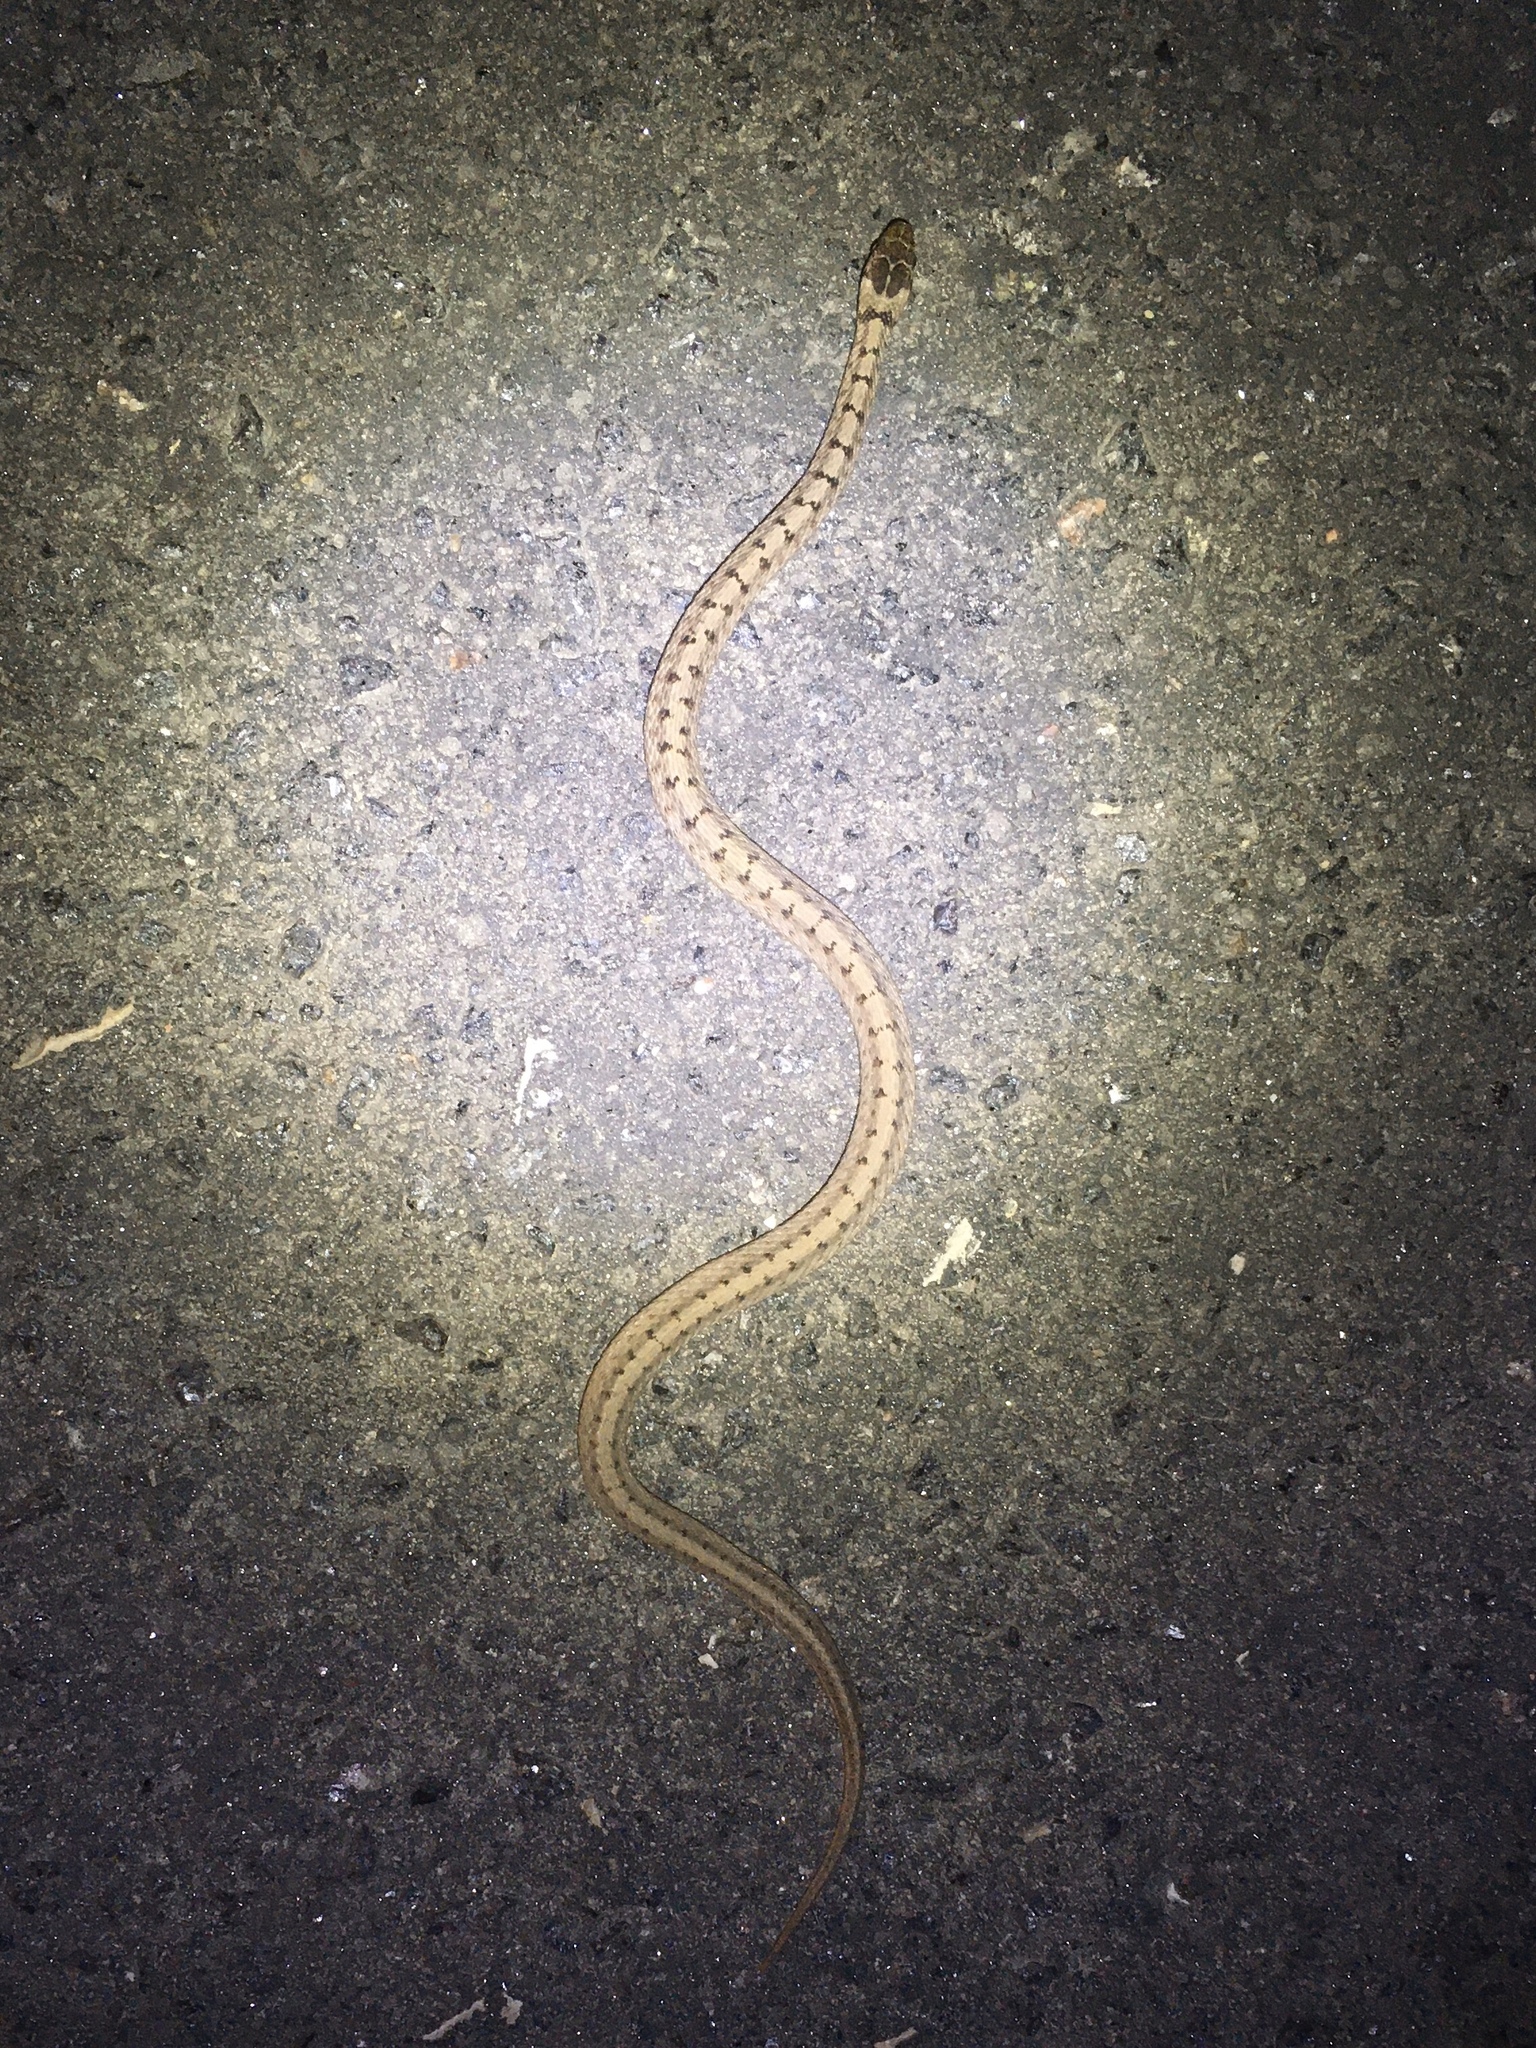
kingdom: Animalia
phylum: Chordata
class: Squamata
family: Colubridae
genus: Storeria
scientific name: Storeria dekayi
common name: (dekay’s) brown snake
